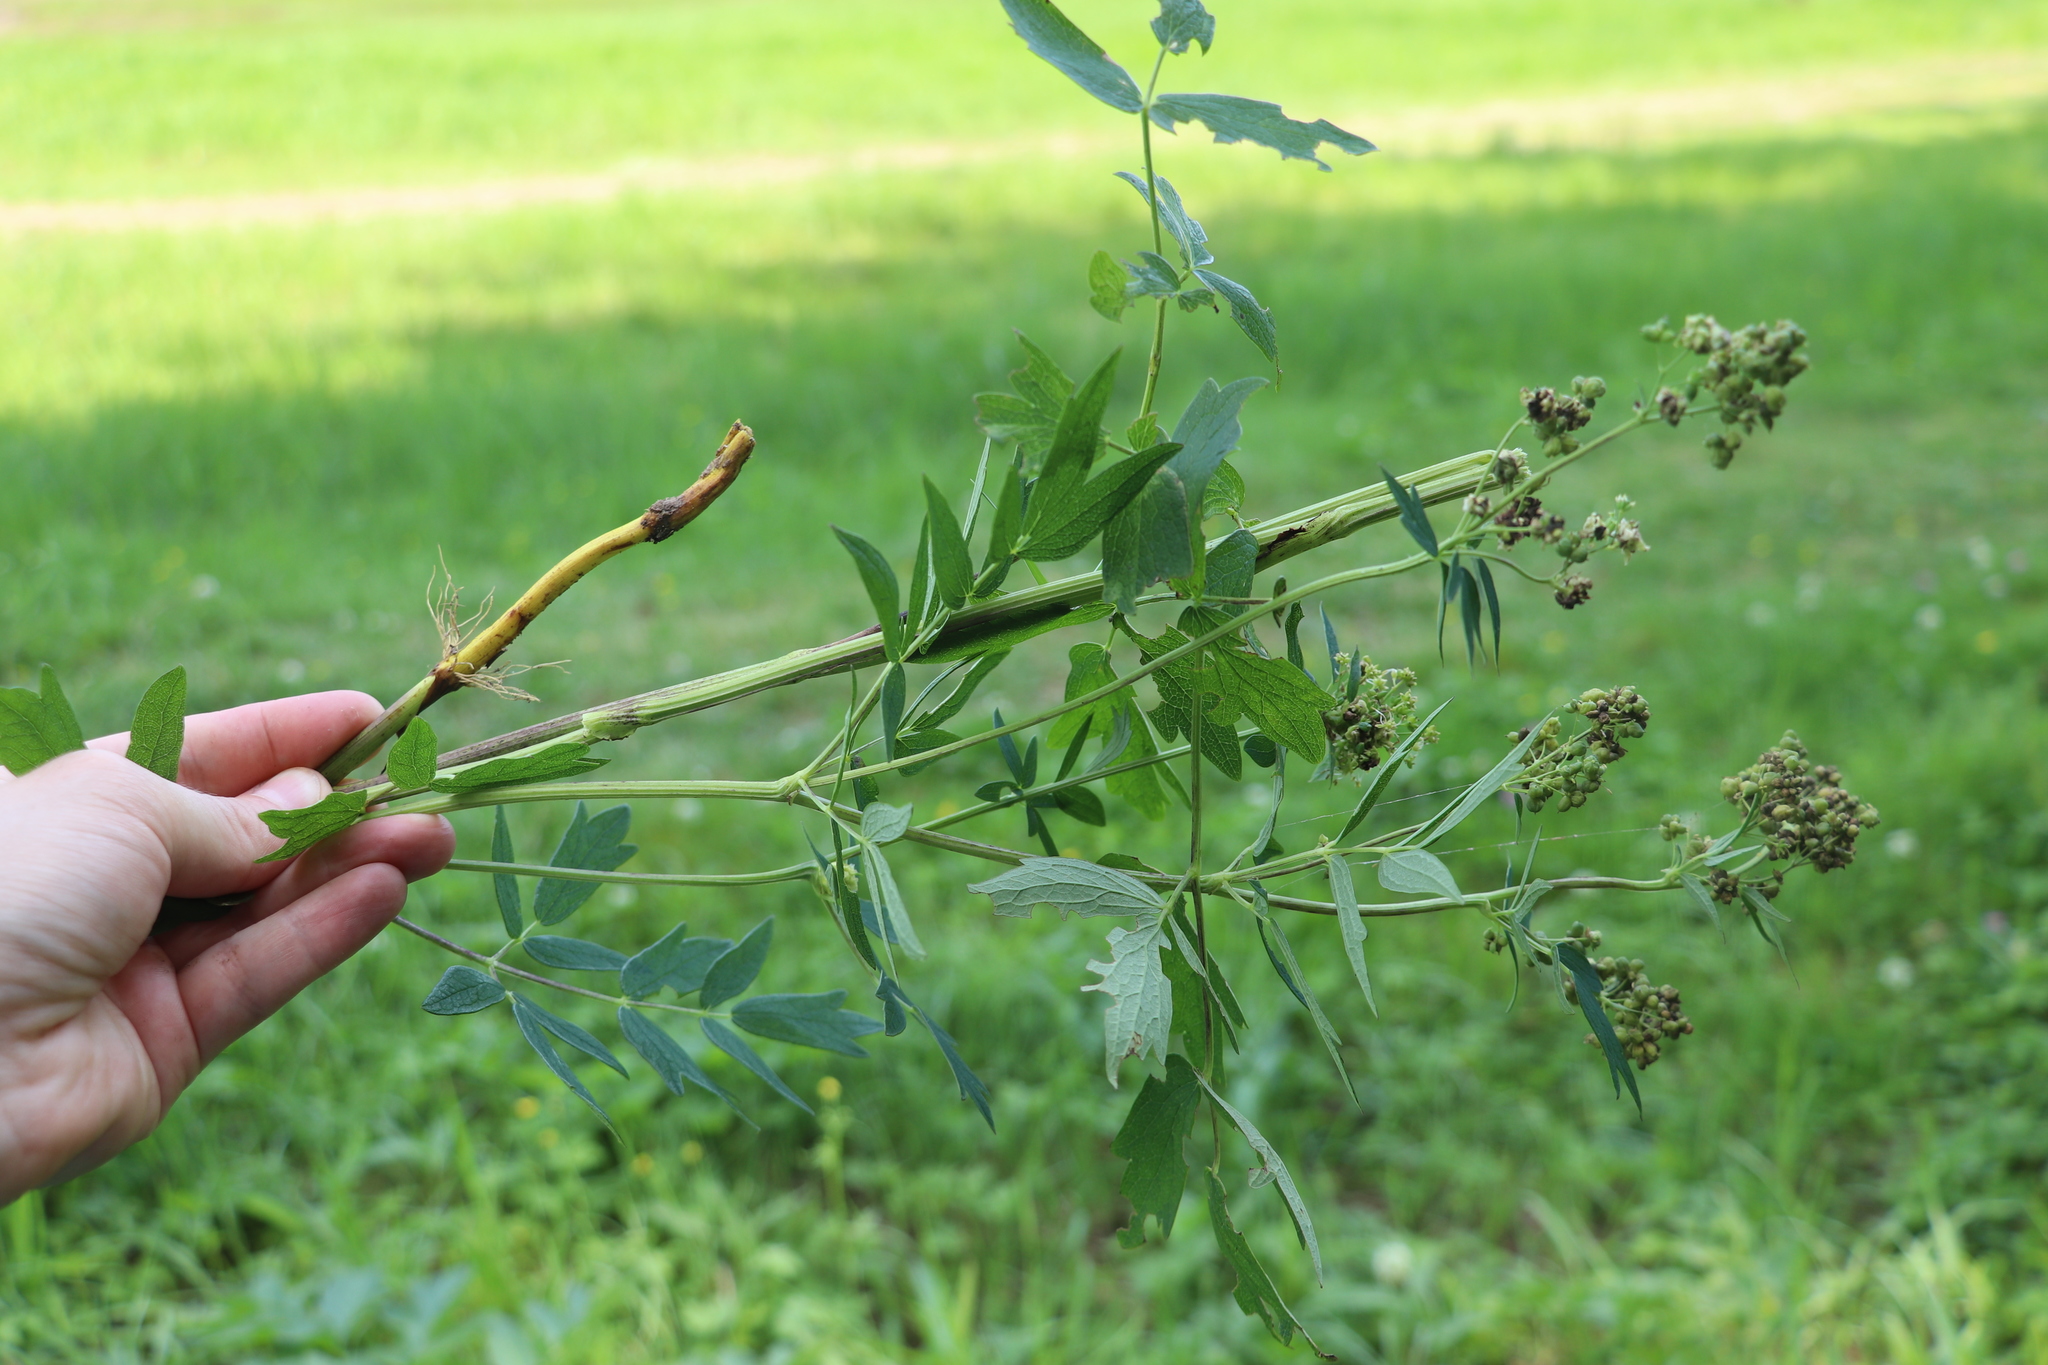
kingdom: Plantae
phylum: Tracheophyta
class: Magnoliopsida
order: Ranunculales
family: Ranunculaceae
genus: Thalictrum
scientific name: Thalictrum simplex
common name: Small meadow-rue
